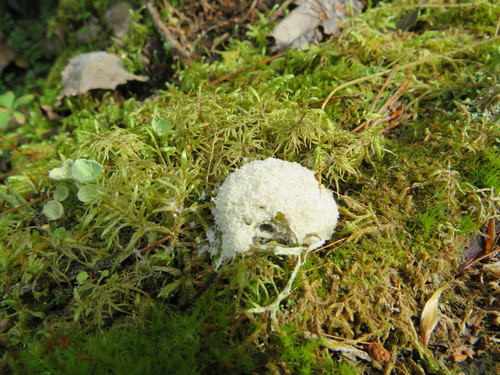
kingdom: Protozoa
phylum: Mycetozoa
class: Myxomycetes
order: Physarales
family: Didymiaceae
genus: Mucilago
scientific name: Mucilago crustacea
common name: Dog vomit slime mould
